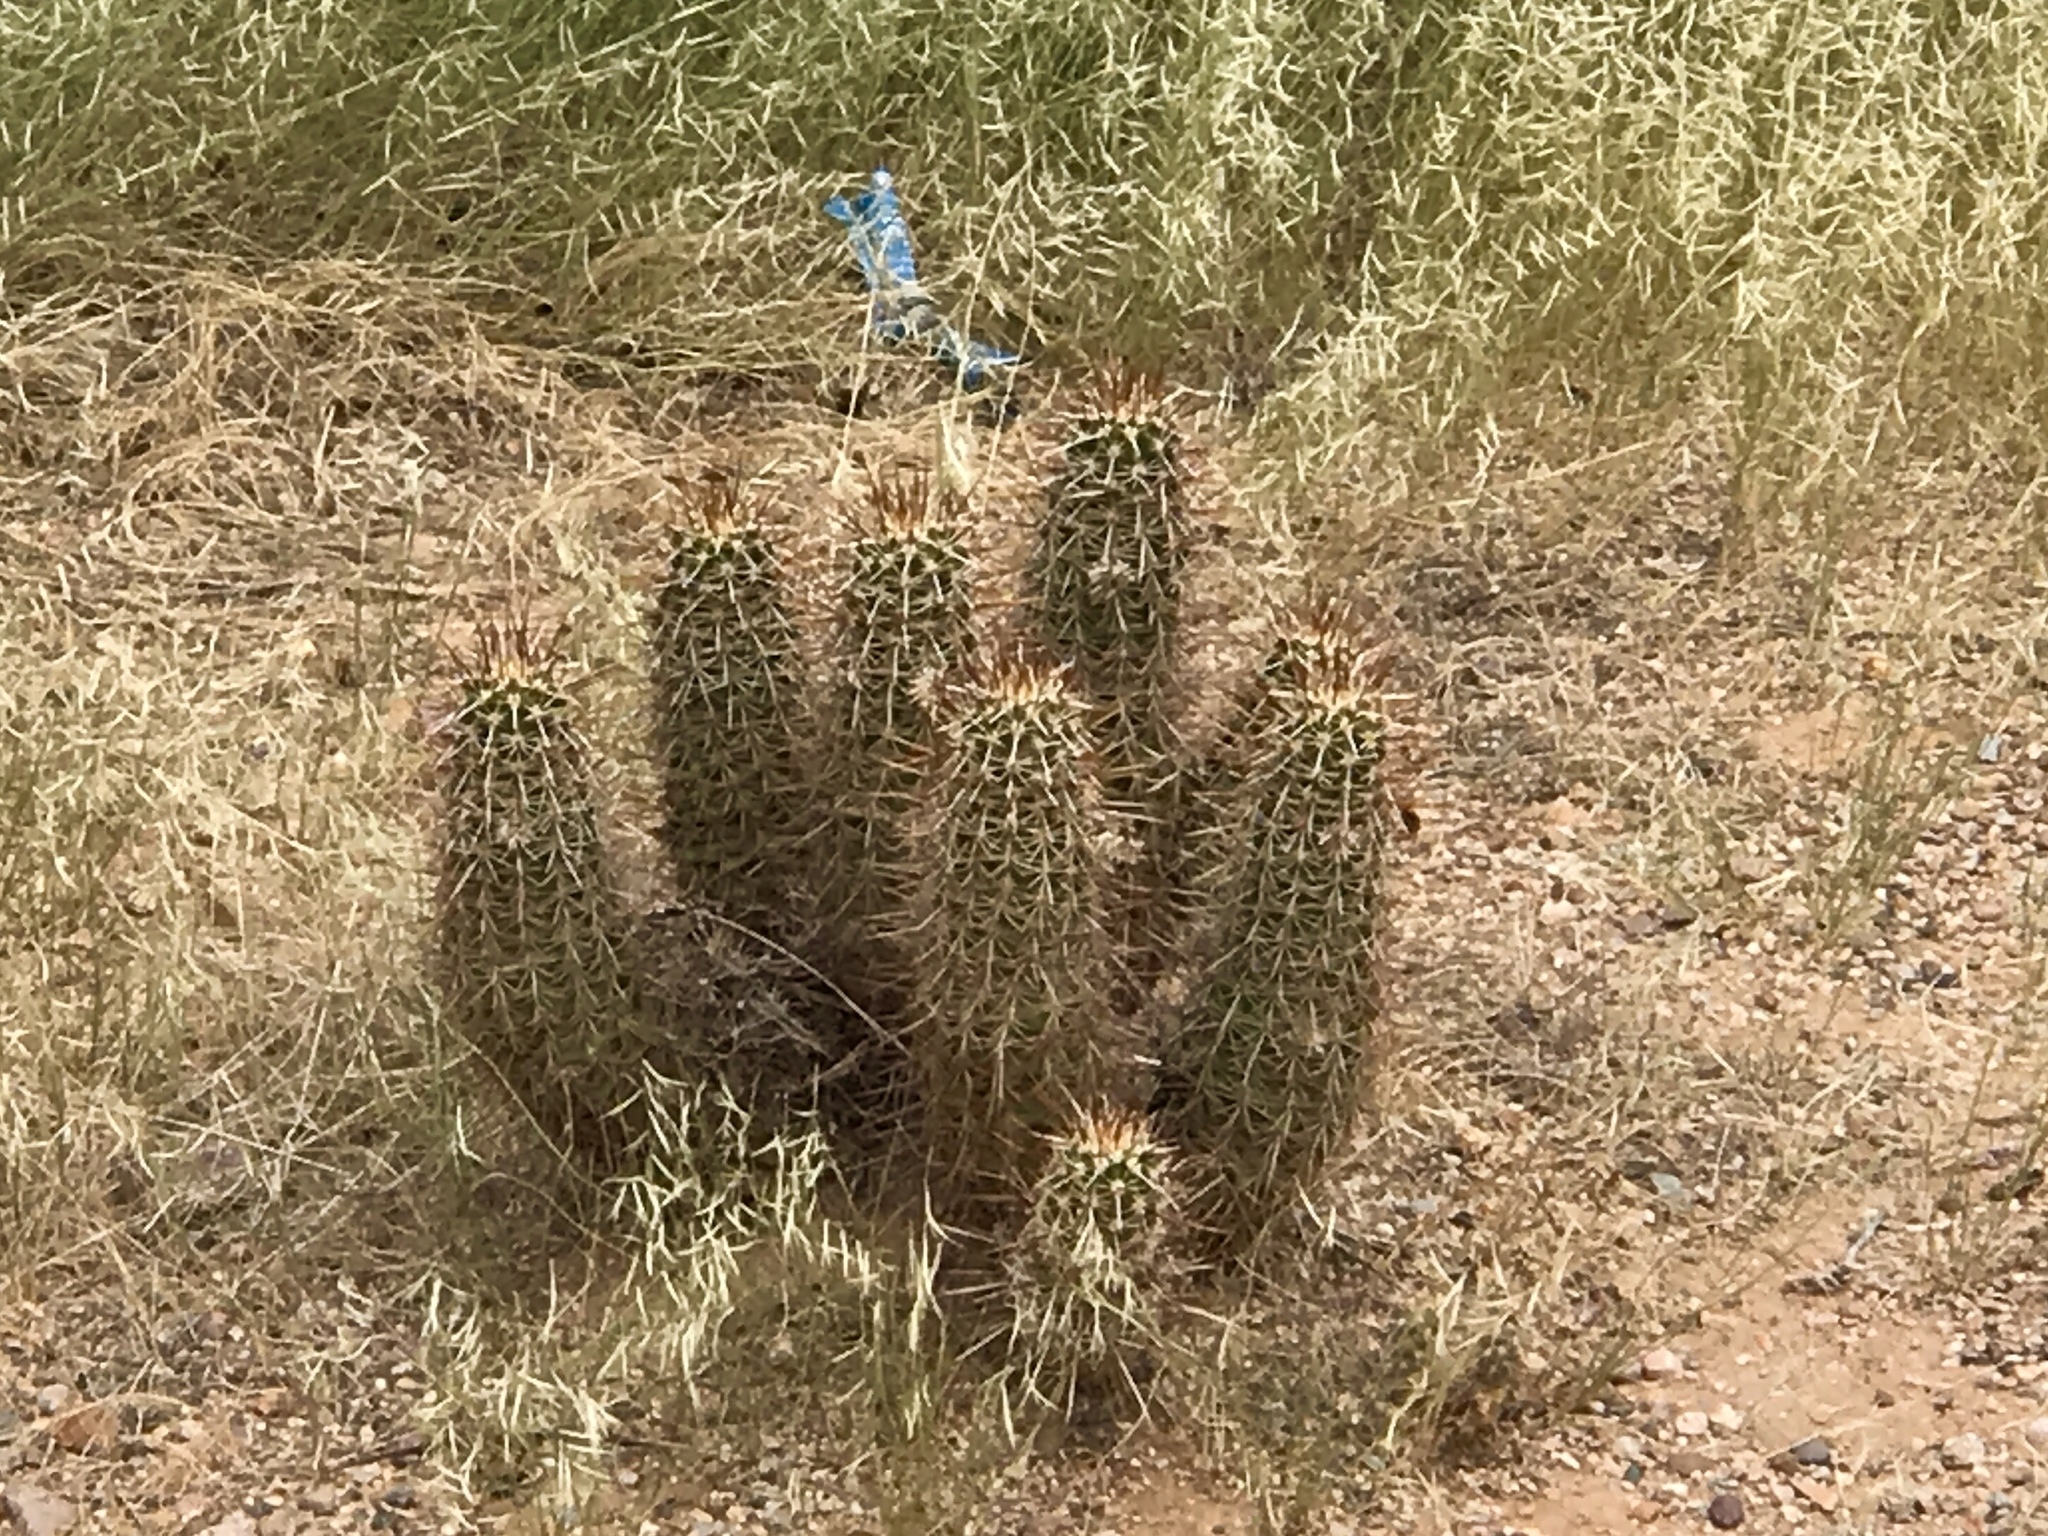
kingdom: Plantae
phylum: Tracheophyta
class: Magnoliopsida
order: Caryophyllales
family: Cactaceae
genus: Echinocereus
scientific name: Echinocereus fasciculatus
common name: Bundle hedgehog
